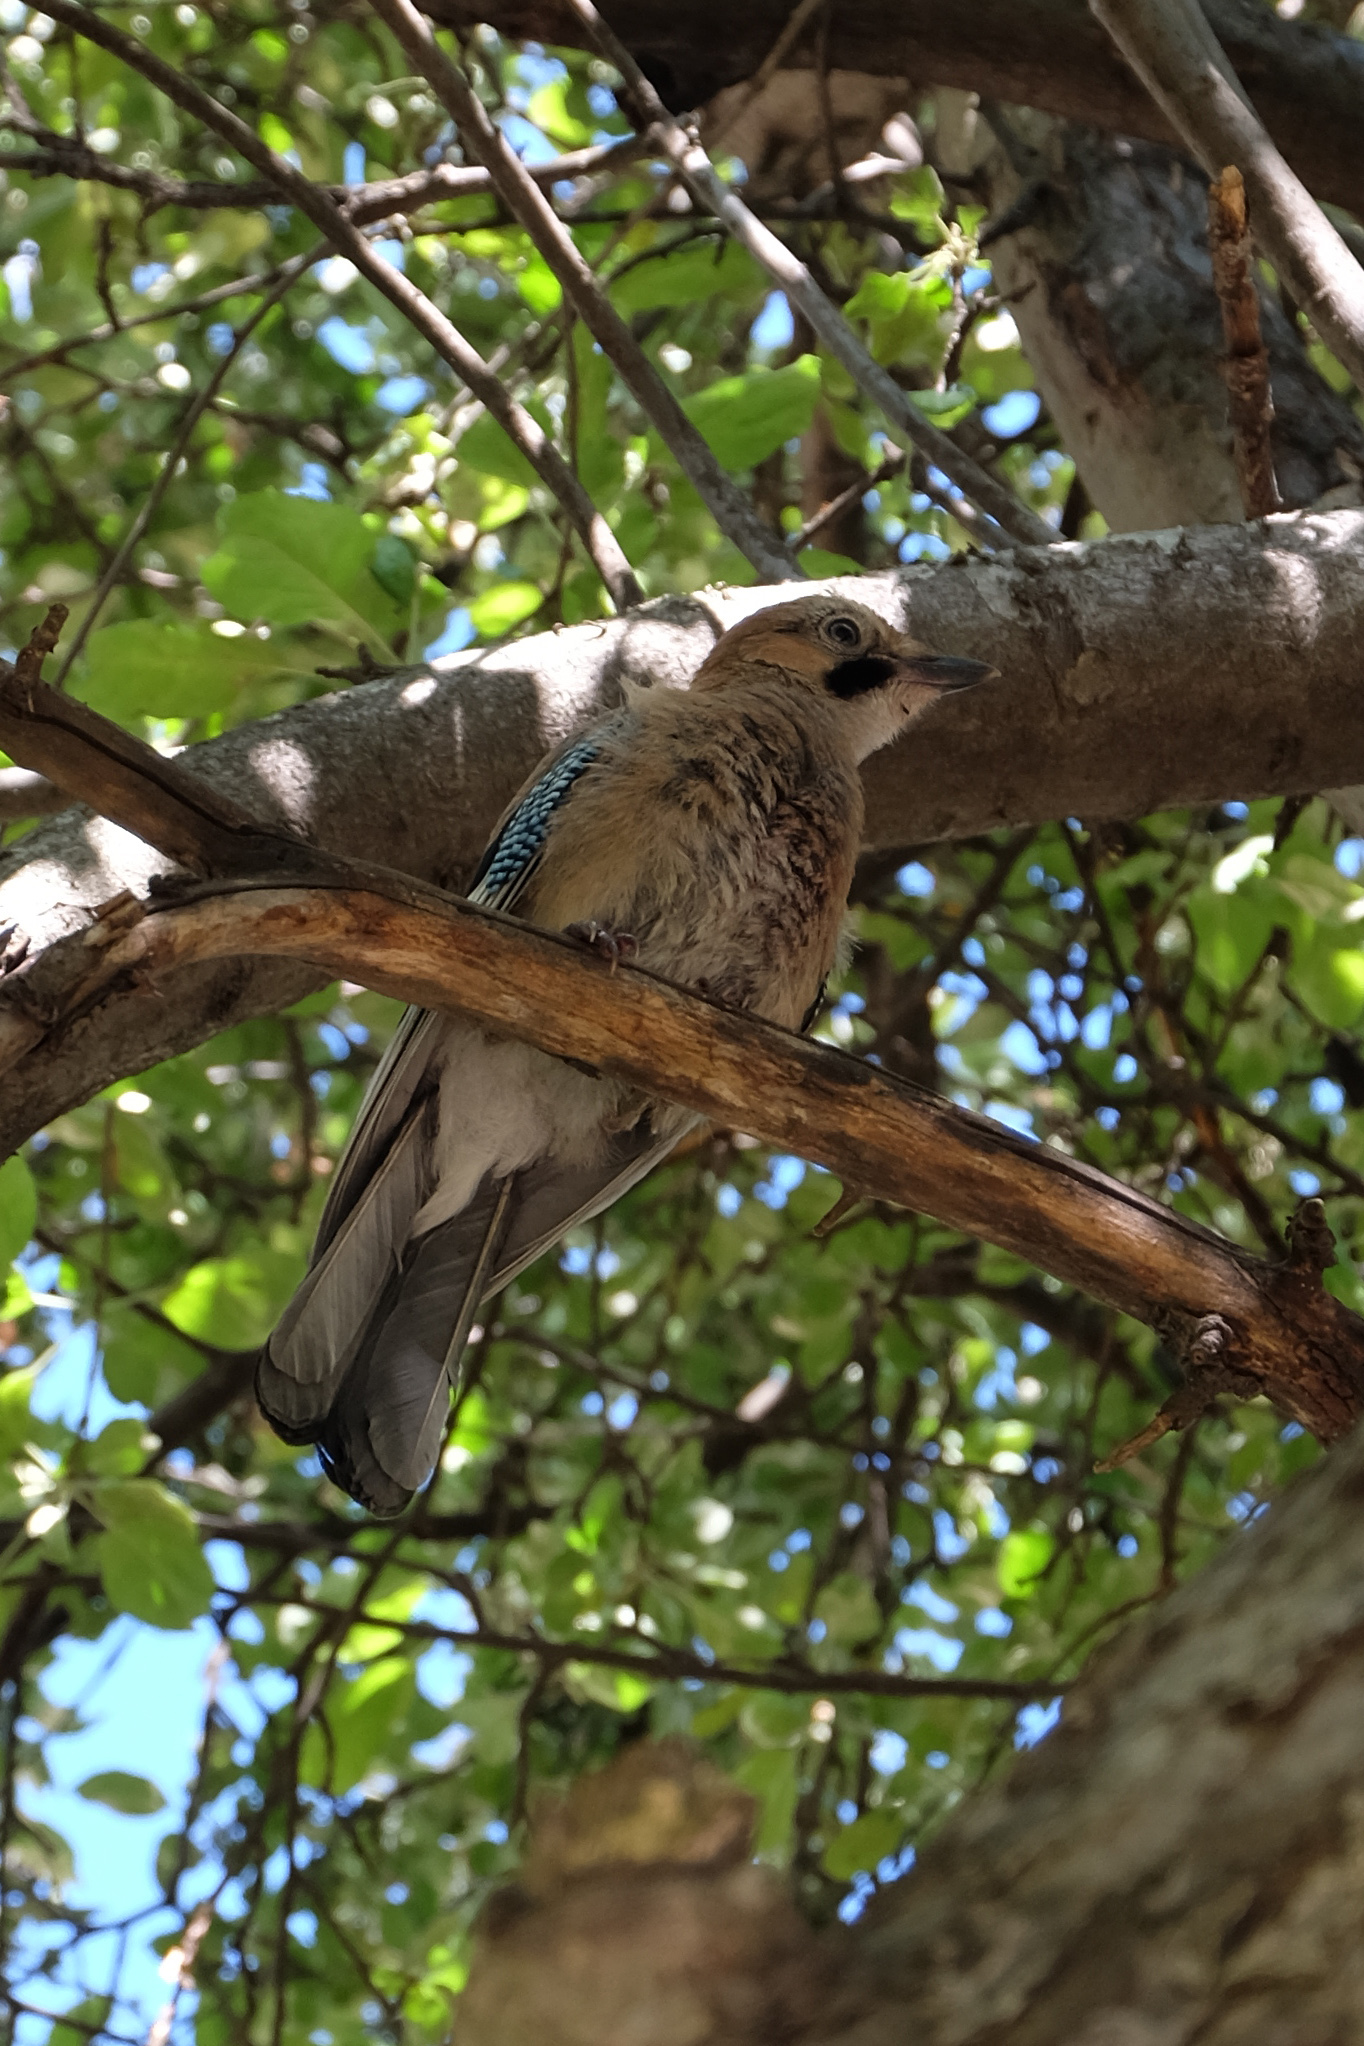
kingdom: Animalia
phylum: Chordata
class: Aves
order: Passeriformes
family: Corvidae
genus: Garrulus
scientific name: Garrulus glandarius
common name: Eurasian jay
